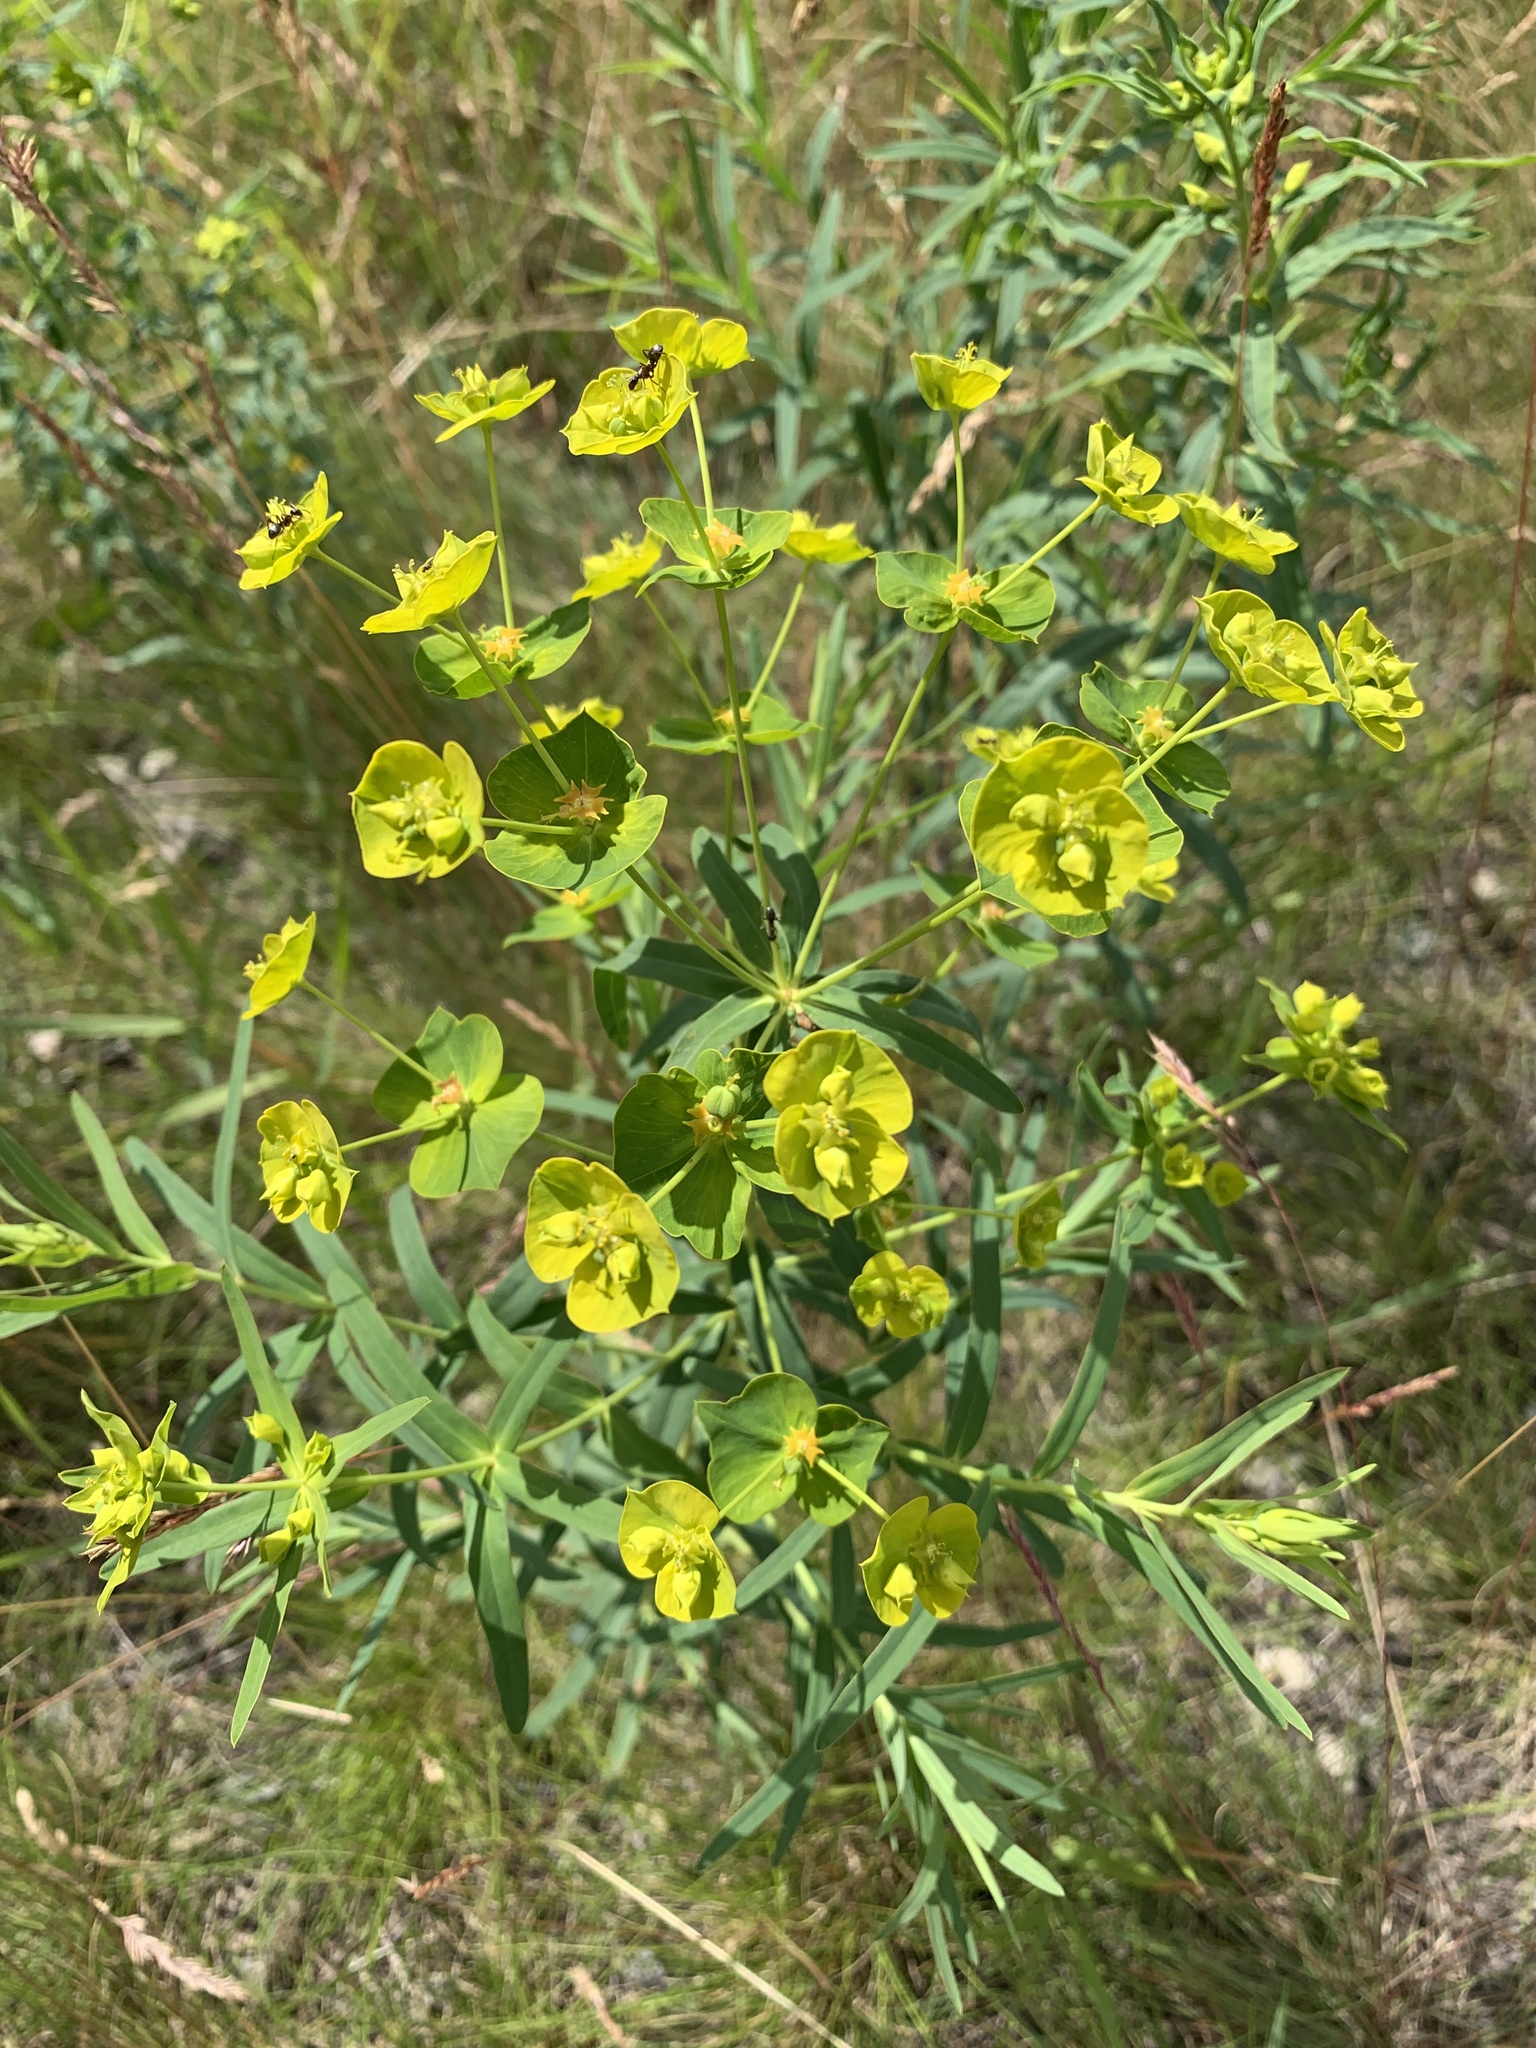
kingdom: Plantae
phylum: Tracheophyta
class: Magnoliopsida
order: Malpighiales
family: Euphorbiaceae
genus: Euphorbia
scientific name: Euphorbia virgata
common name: Leafy spurge
